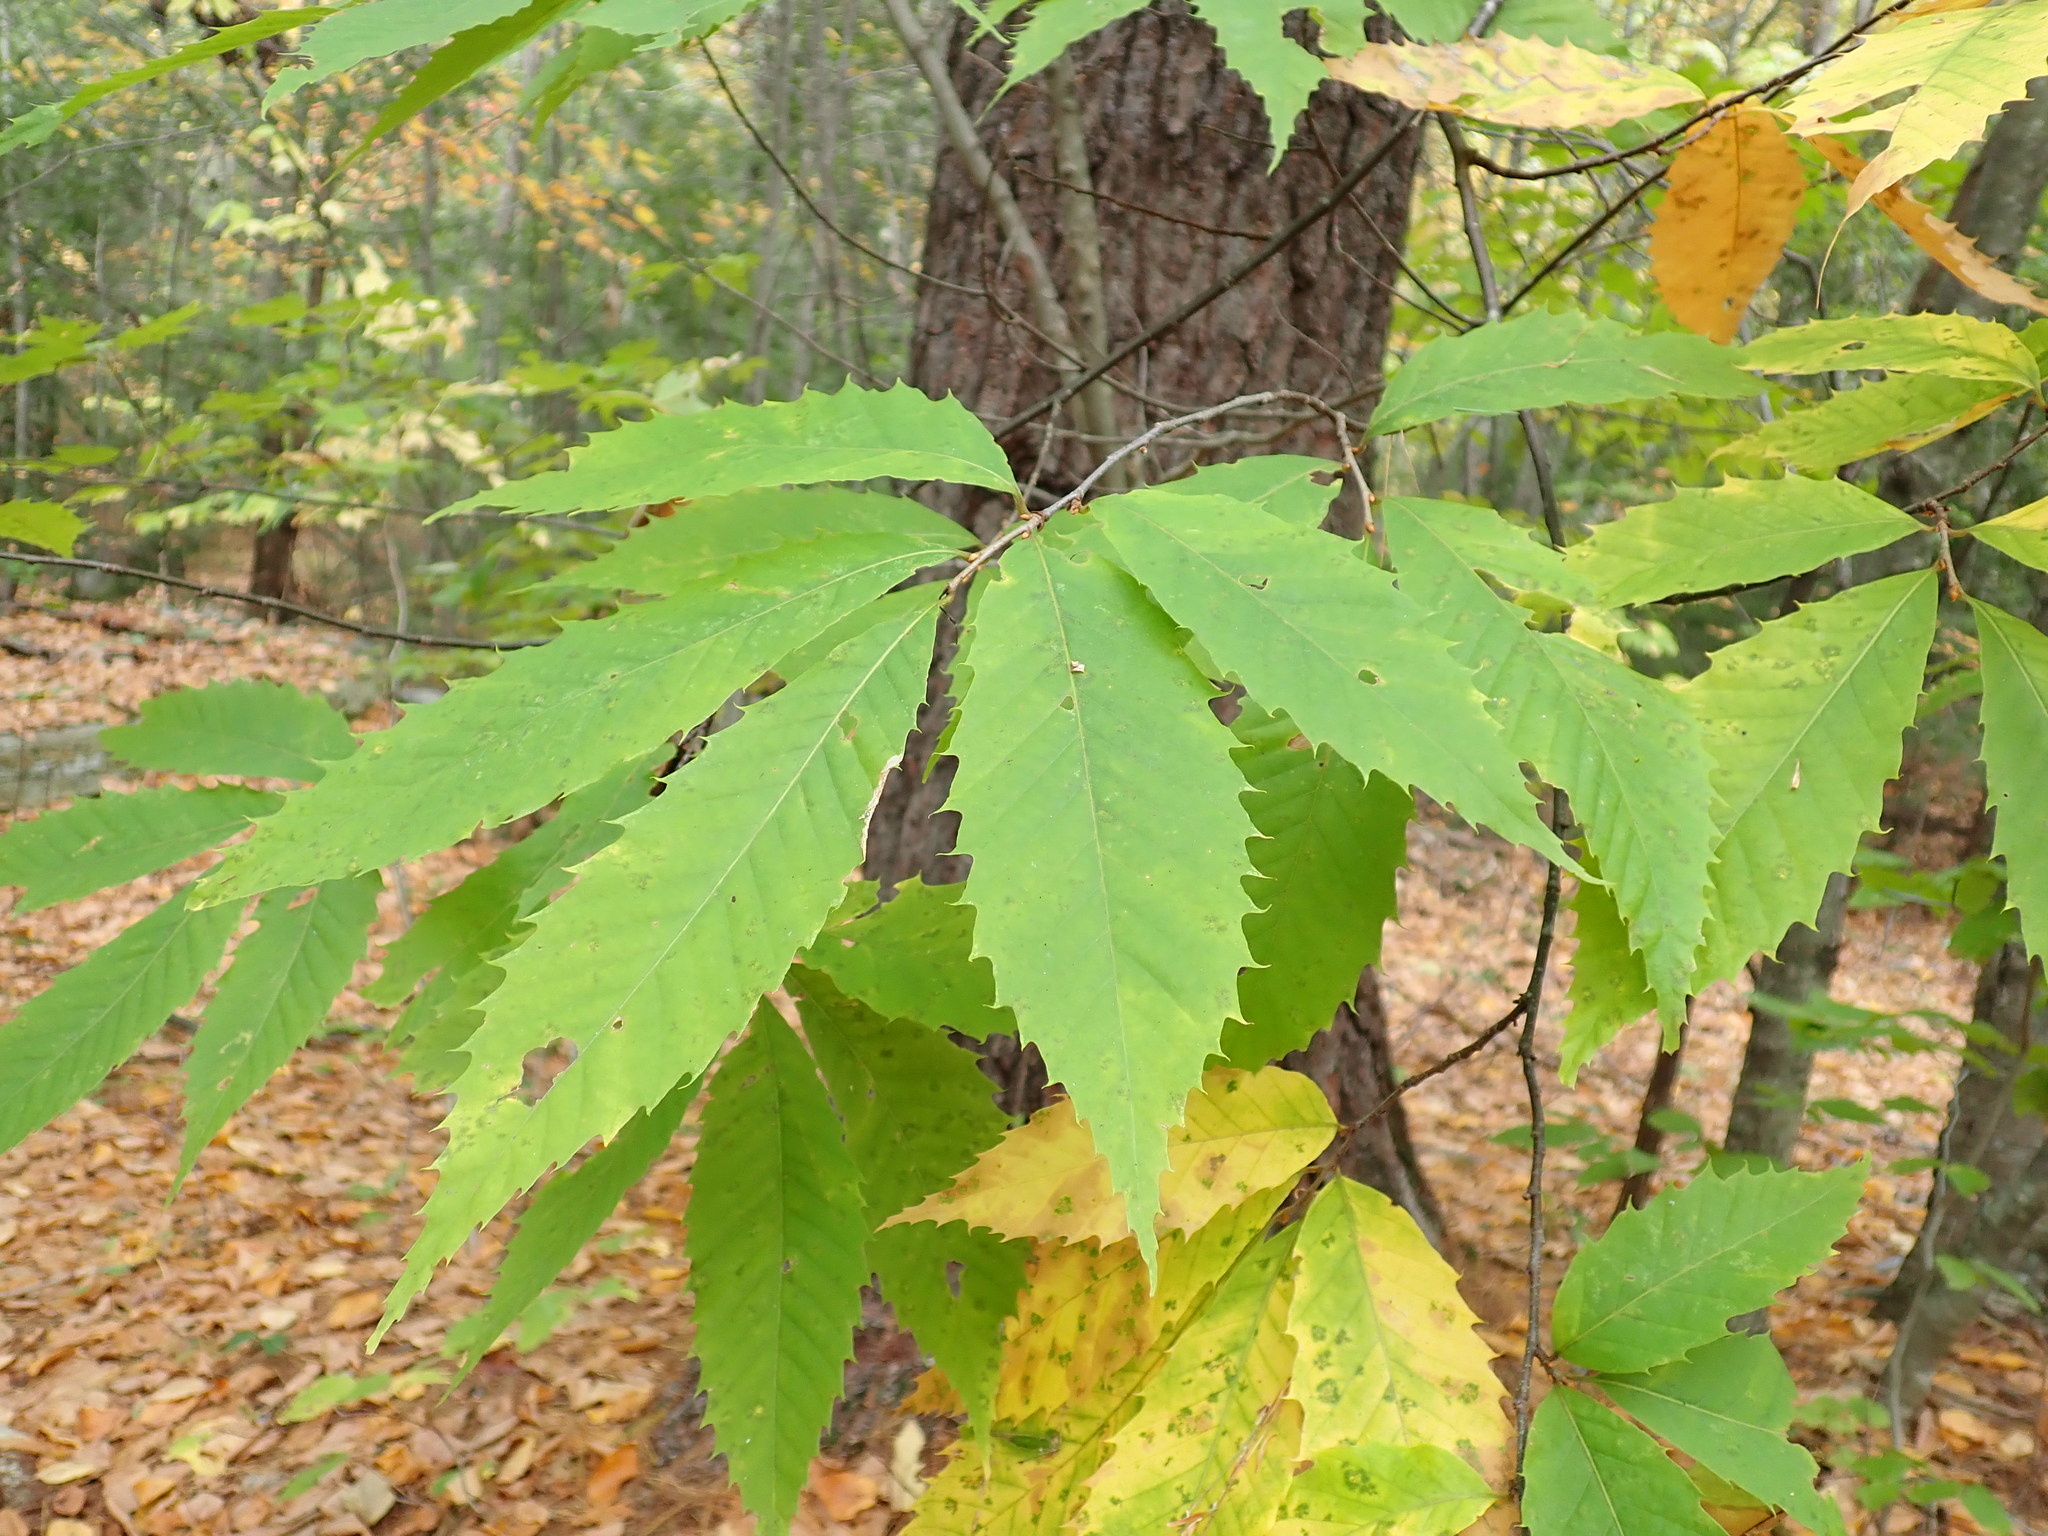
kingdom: Plantae
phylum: Tracheophyta
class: Magnoliopsida
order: Fagales
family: Fagaceae
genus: Castanea
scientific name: Castanea dentata
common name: American chestnut
